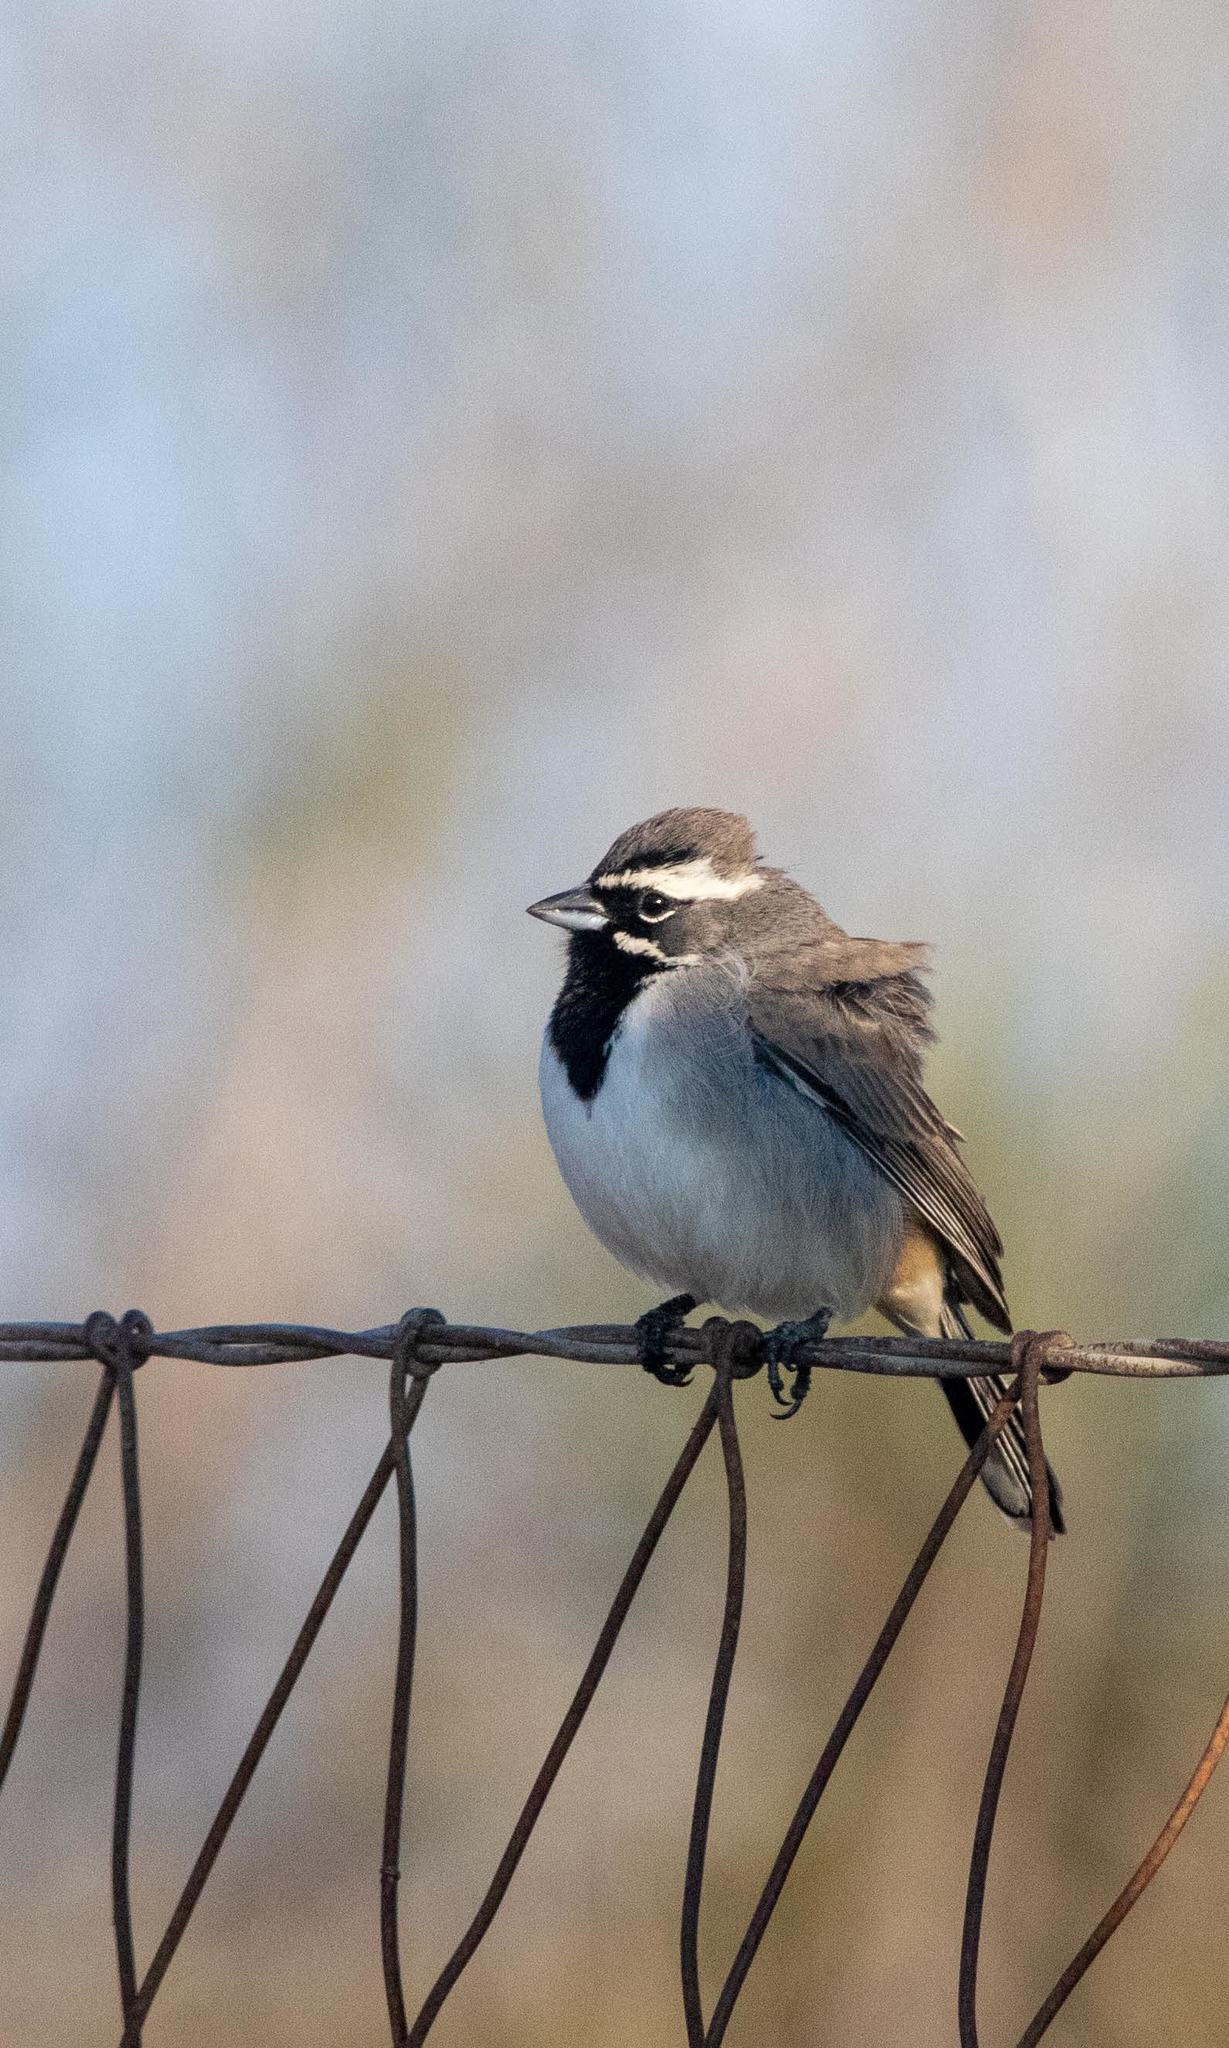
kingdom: Animalia
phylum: Chordata
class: Aves
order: Passeriformes
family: Passerellidae
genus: Amphispiza
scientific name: Amphispiza bilineata
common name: Black-throated sparrow
